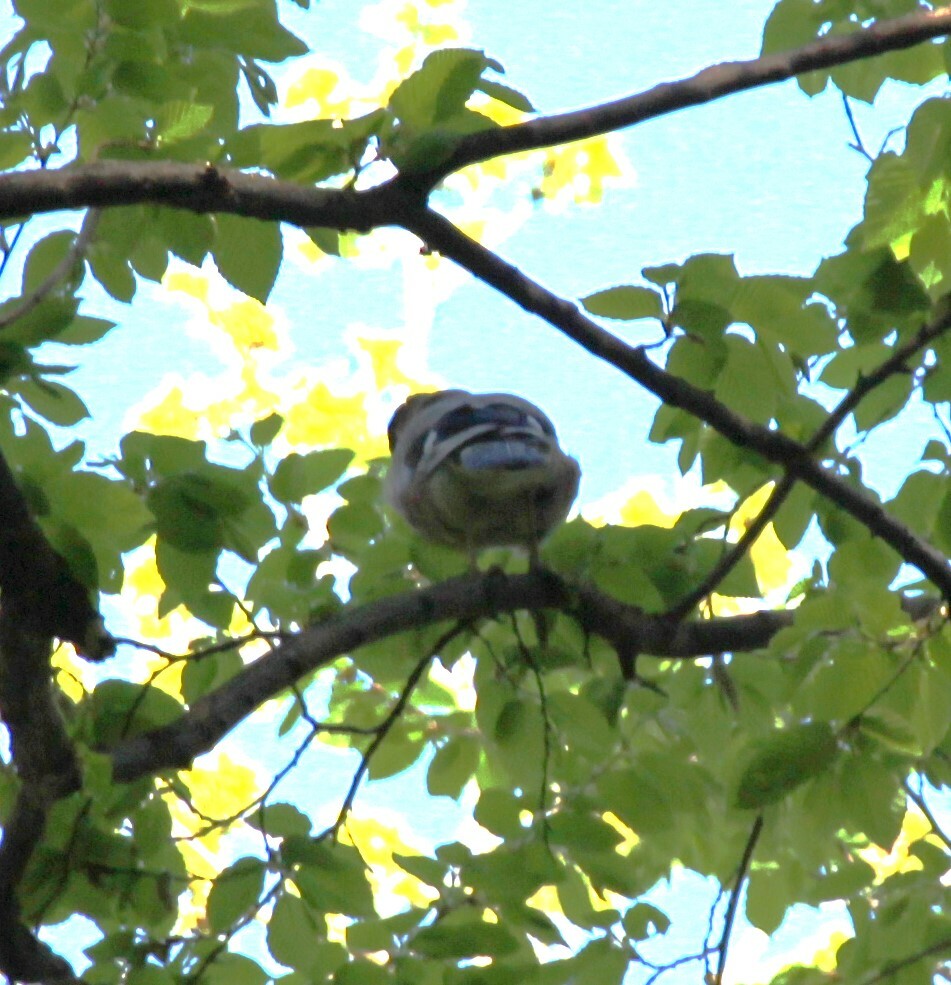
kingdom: Animalia
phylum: Chordata
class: Aves
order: Passeriformes
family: Corvidae
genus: Garrulus
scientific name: Garrulus glandarius
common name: Eurasian jay
